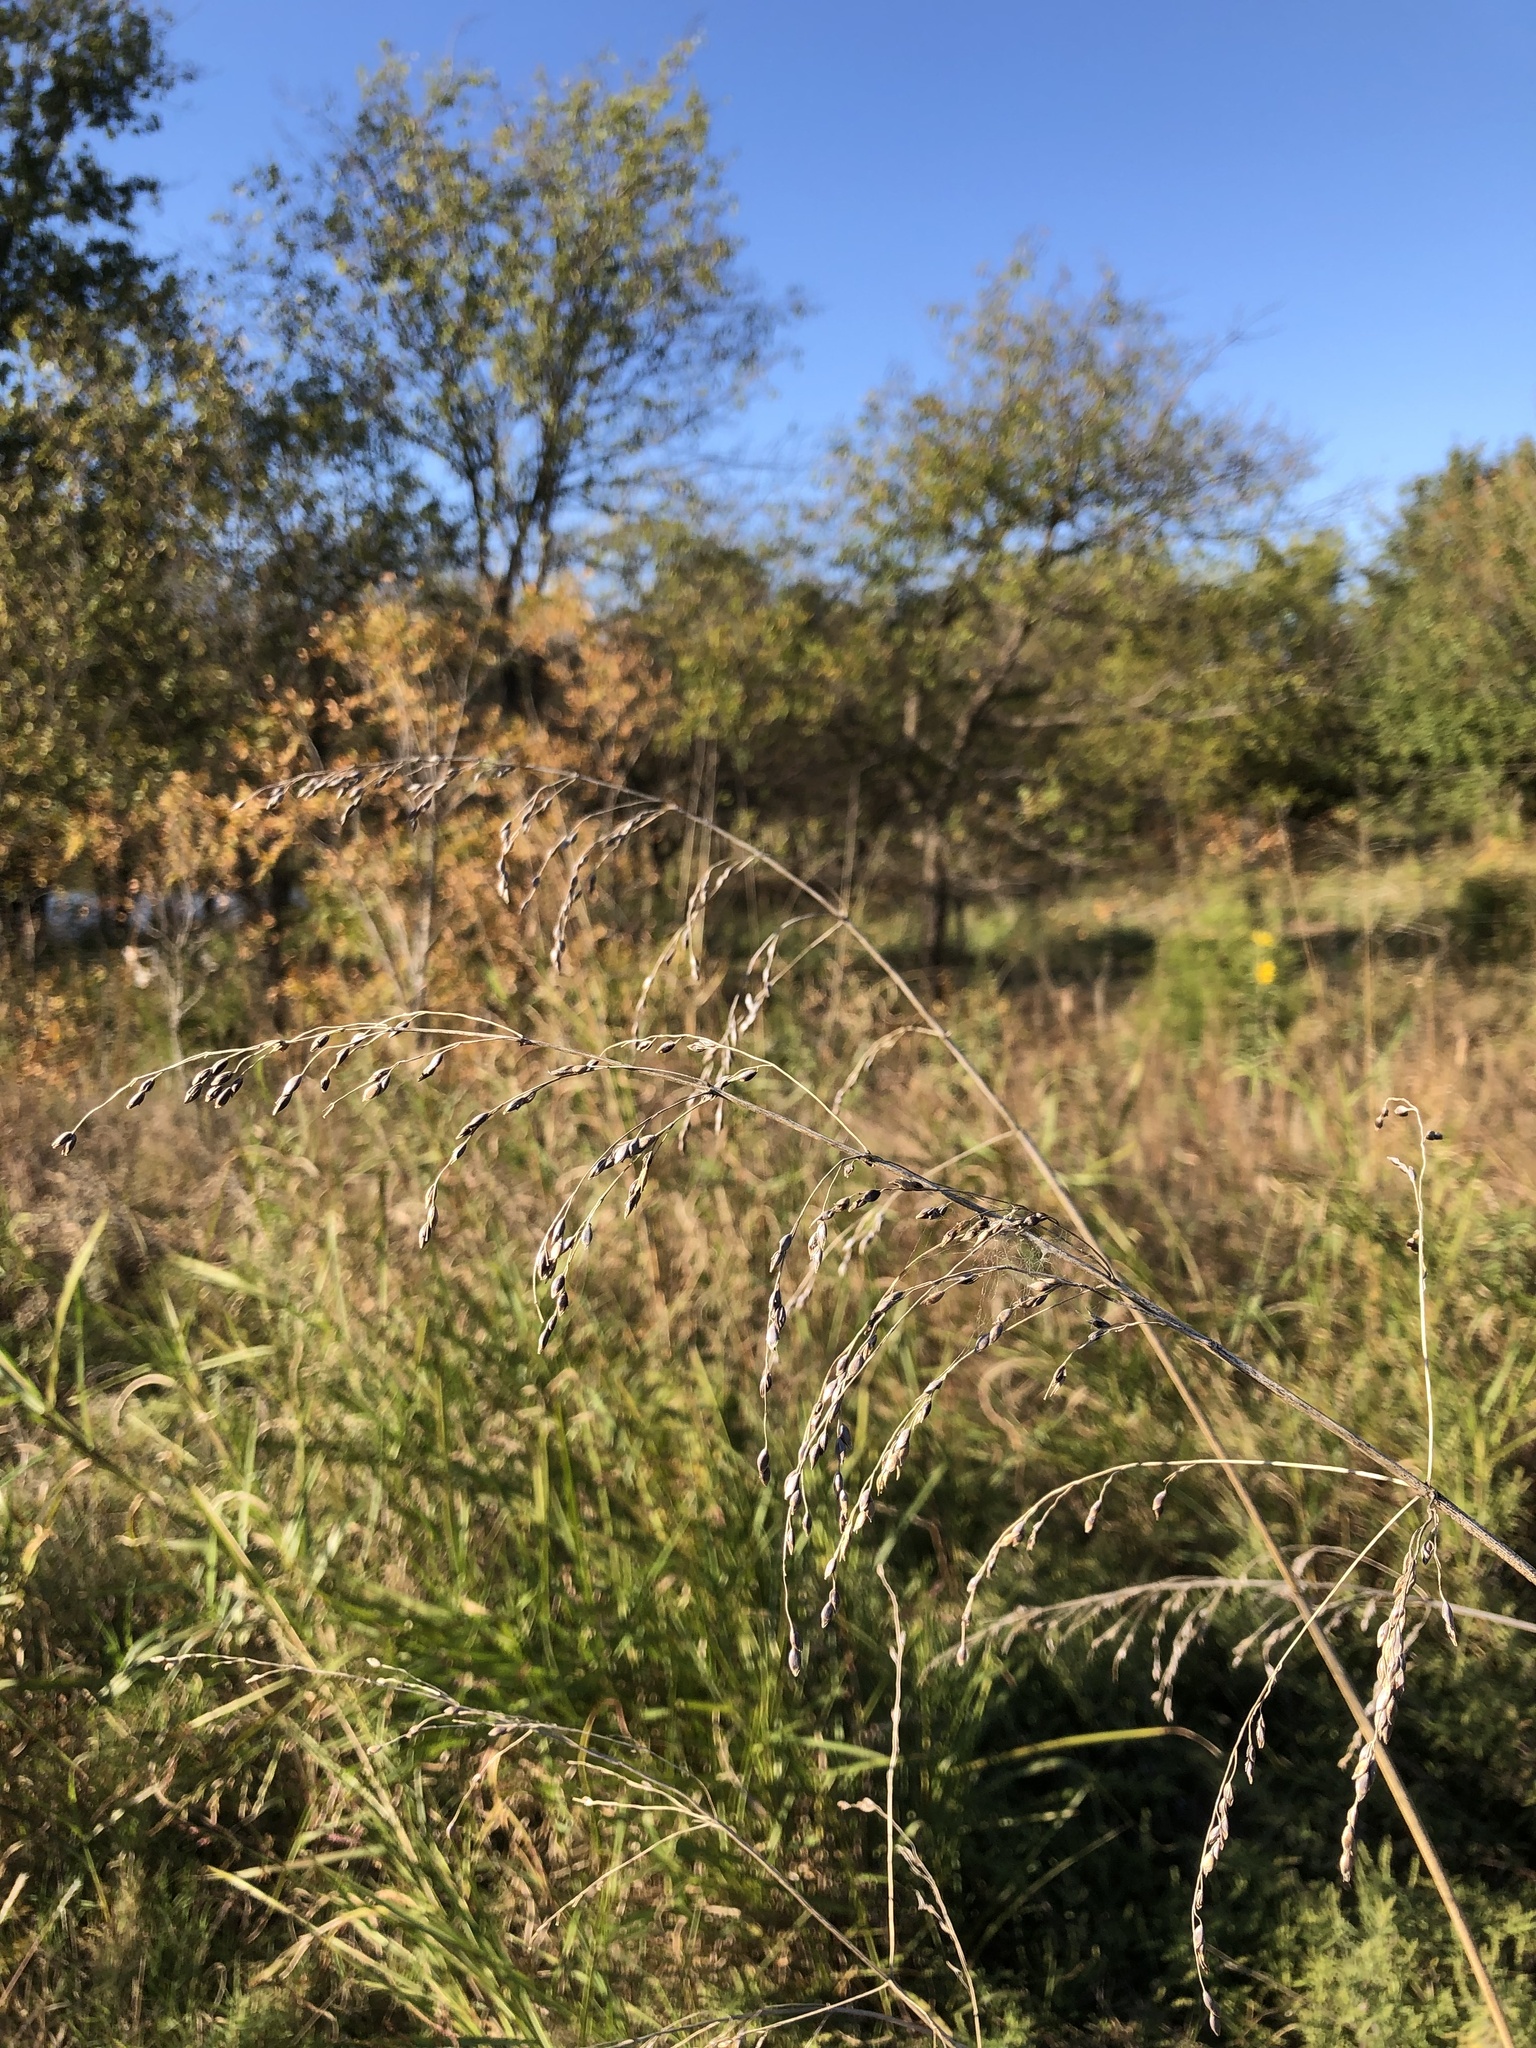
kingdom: Plantae
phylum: Tracheophyta
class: Liliopsida
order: Poales
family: Poaceae
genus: Sorghum
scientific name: Sorghum halepense
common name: Johnson-grass
